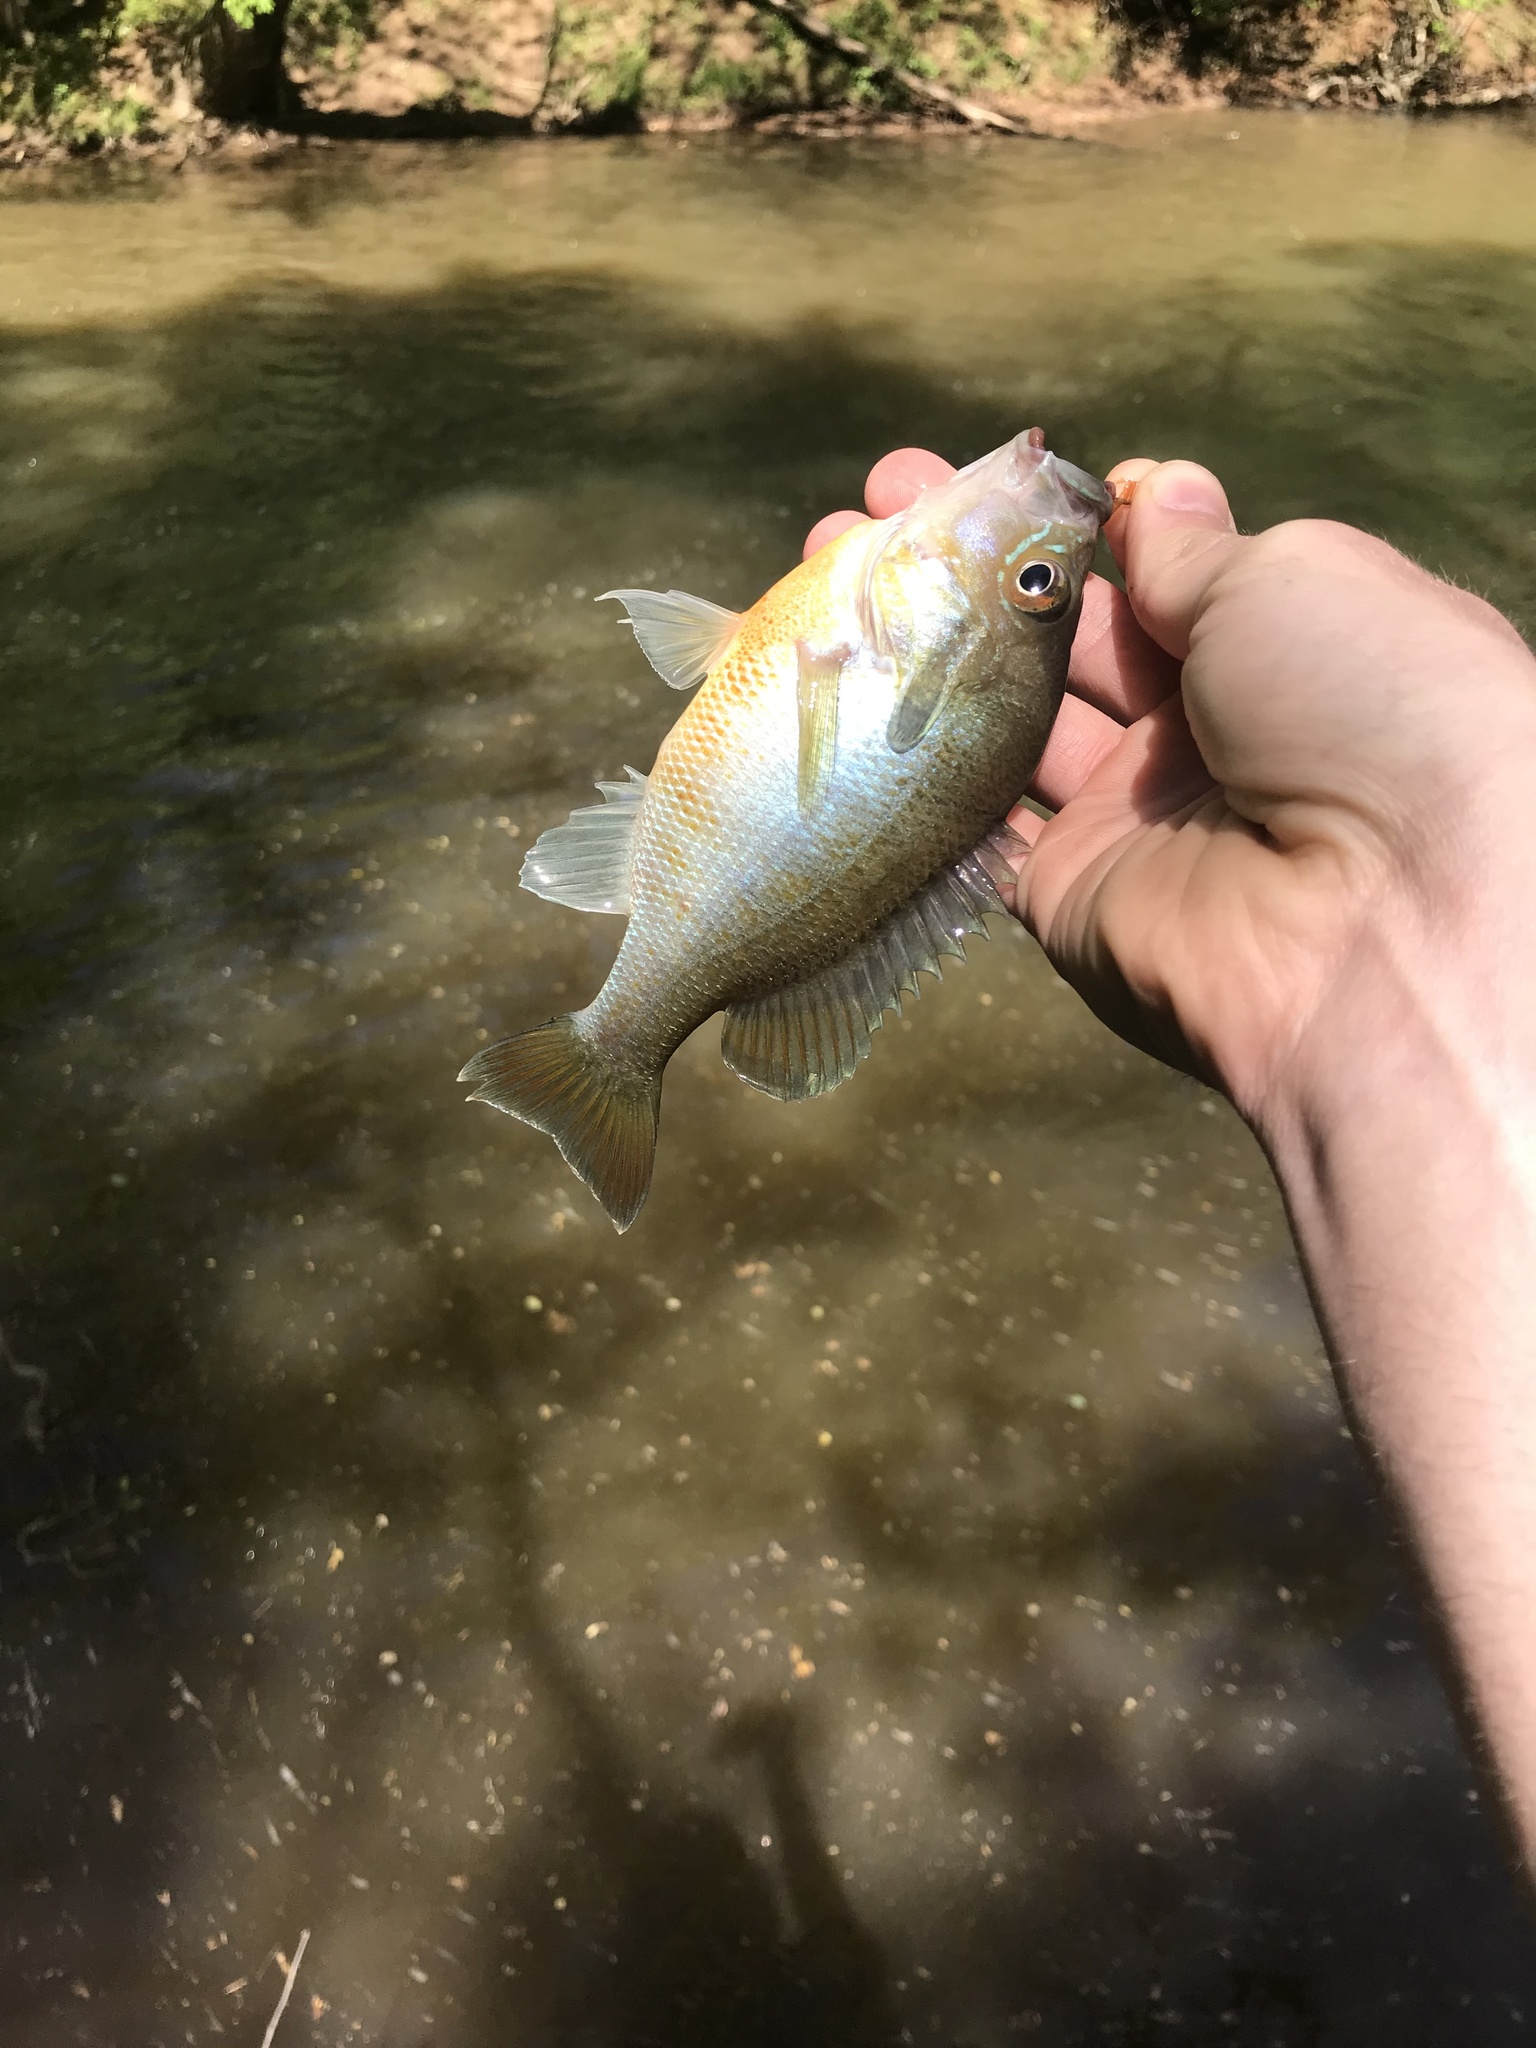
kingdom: Animalia
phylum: Chordata
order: Perciformes
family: Centrarchidae
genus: Lepomis
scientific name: Lepomis auritus
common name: Redbreast sunfish
